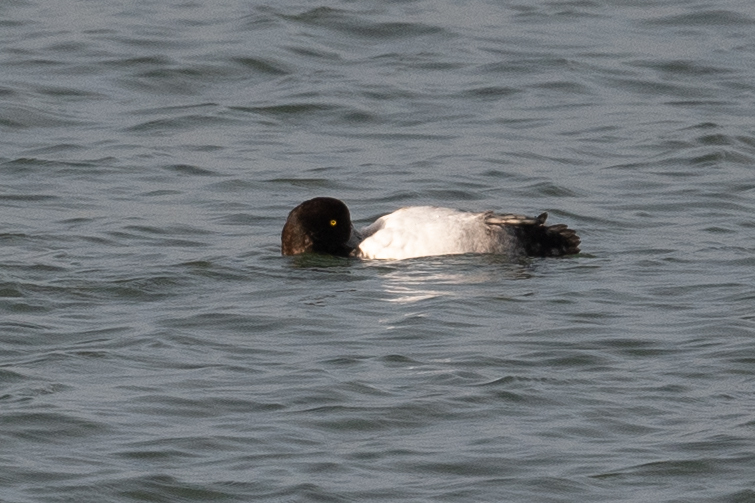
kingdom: Animalia
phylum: Chordata
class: Aves
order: Anseriformes
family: Anatidae
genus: Aythya
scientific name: Aythya marila
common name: Greater scaup
